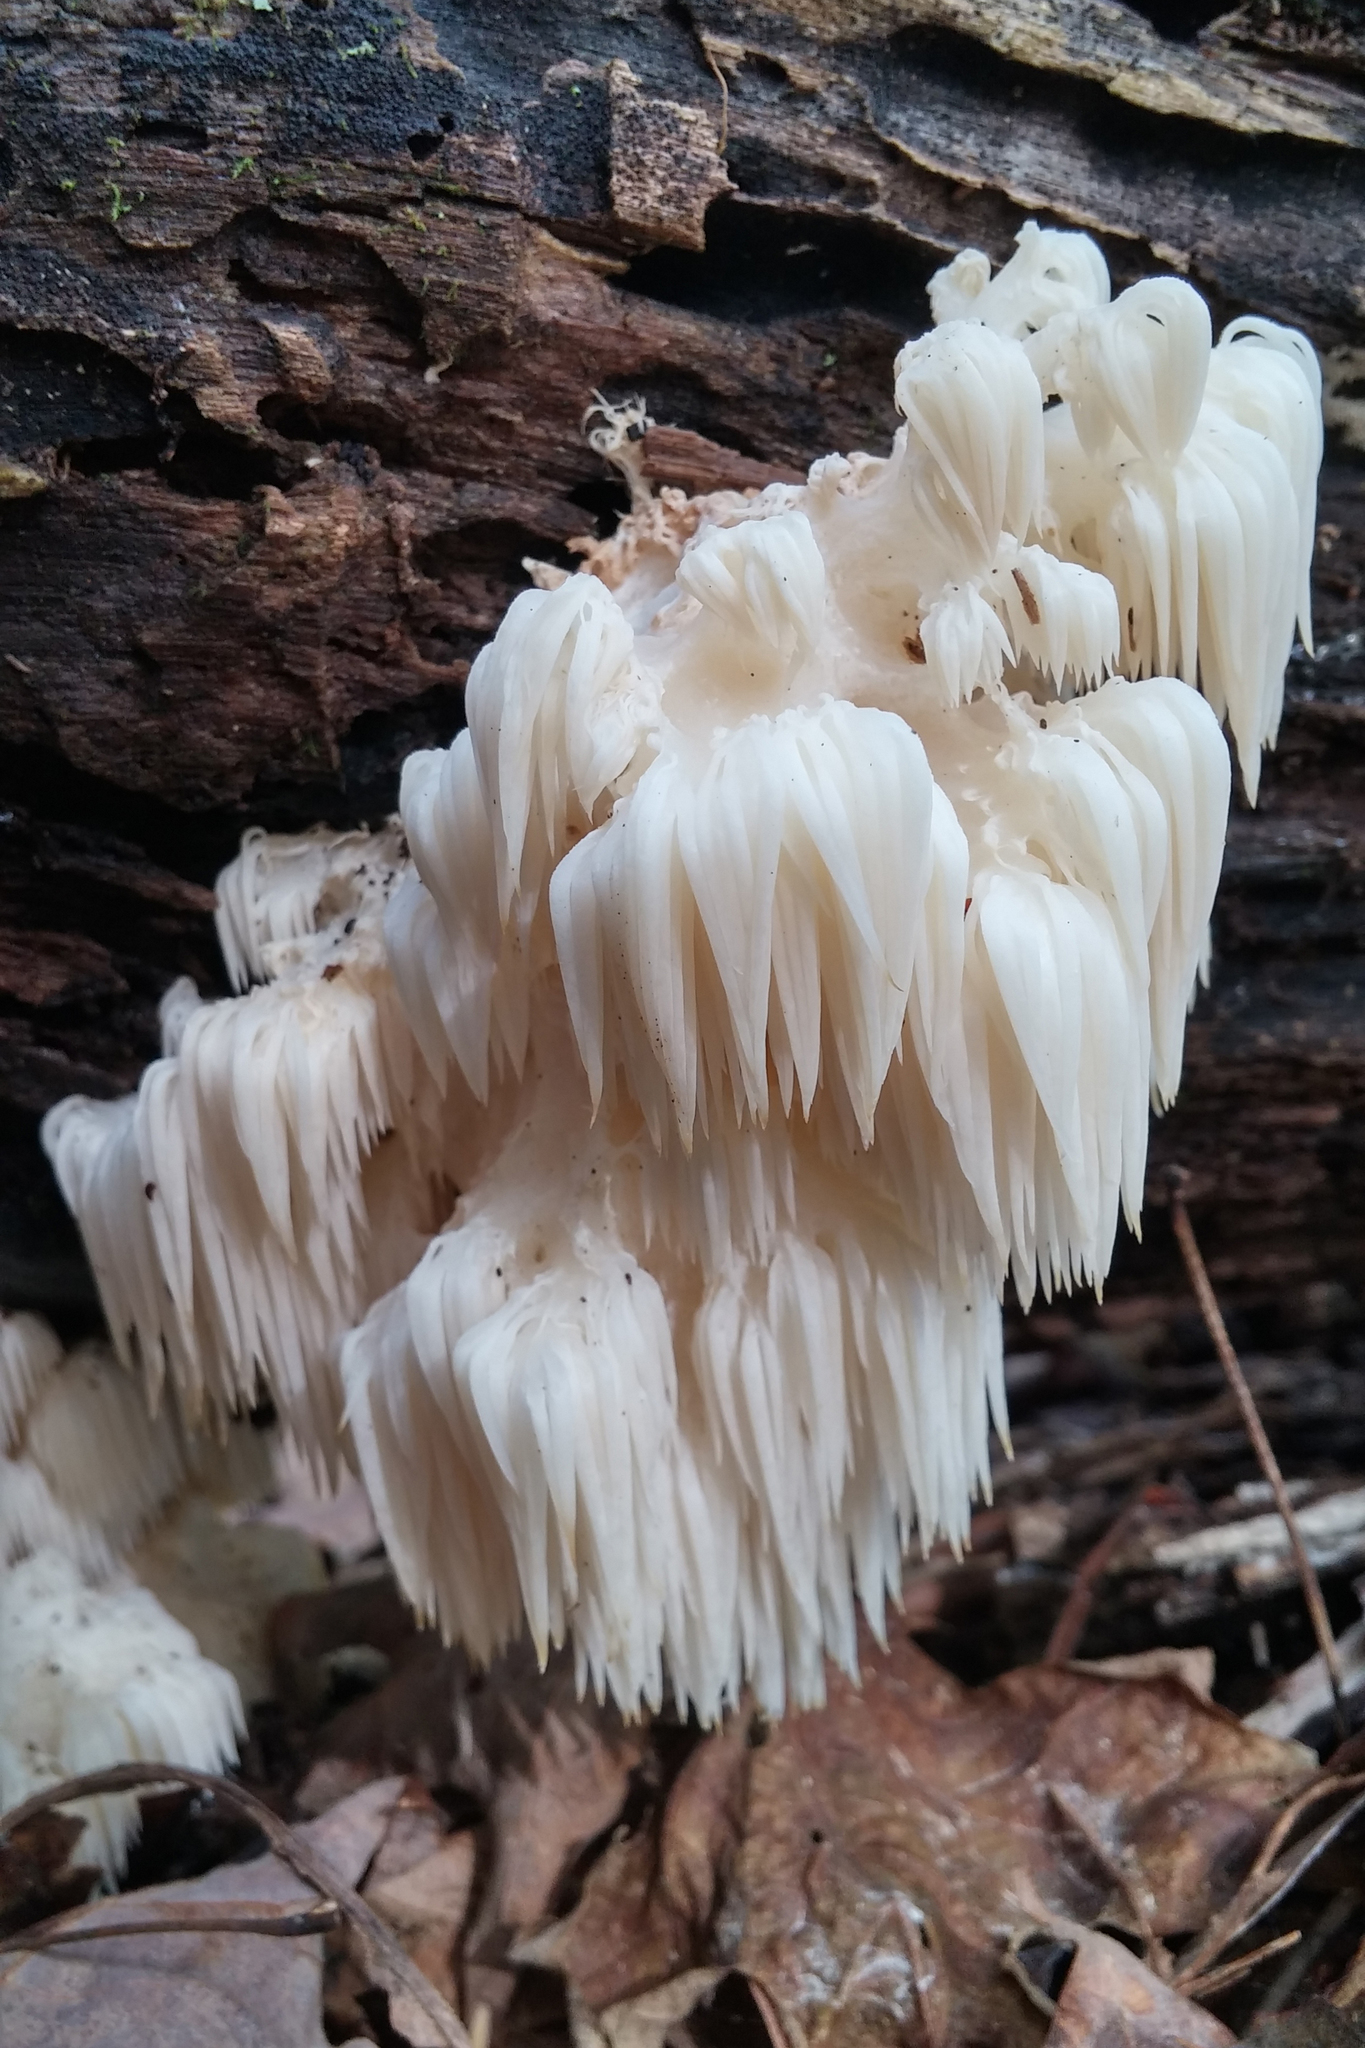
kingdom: Fungi
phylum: Basidiomycota
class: Agaricomycetes
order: Russulales
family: Hericiaceae
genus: Hericium
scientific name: Hericium americanum
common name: Bear's head tooth
